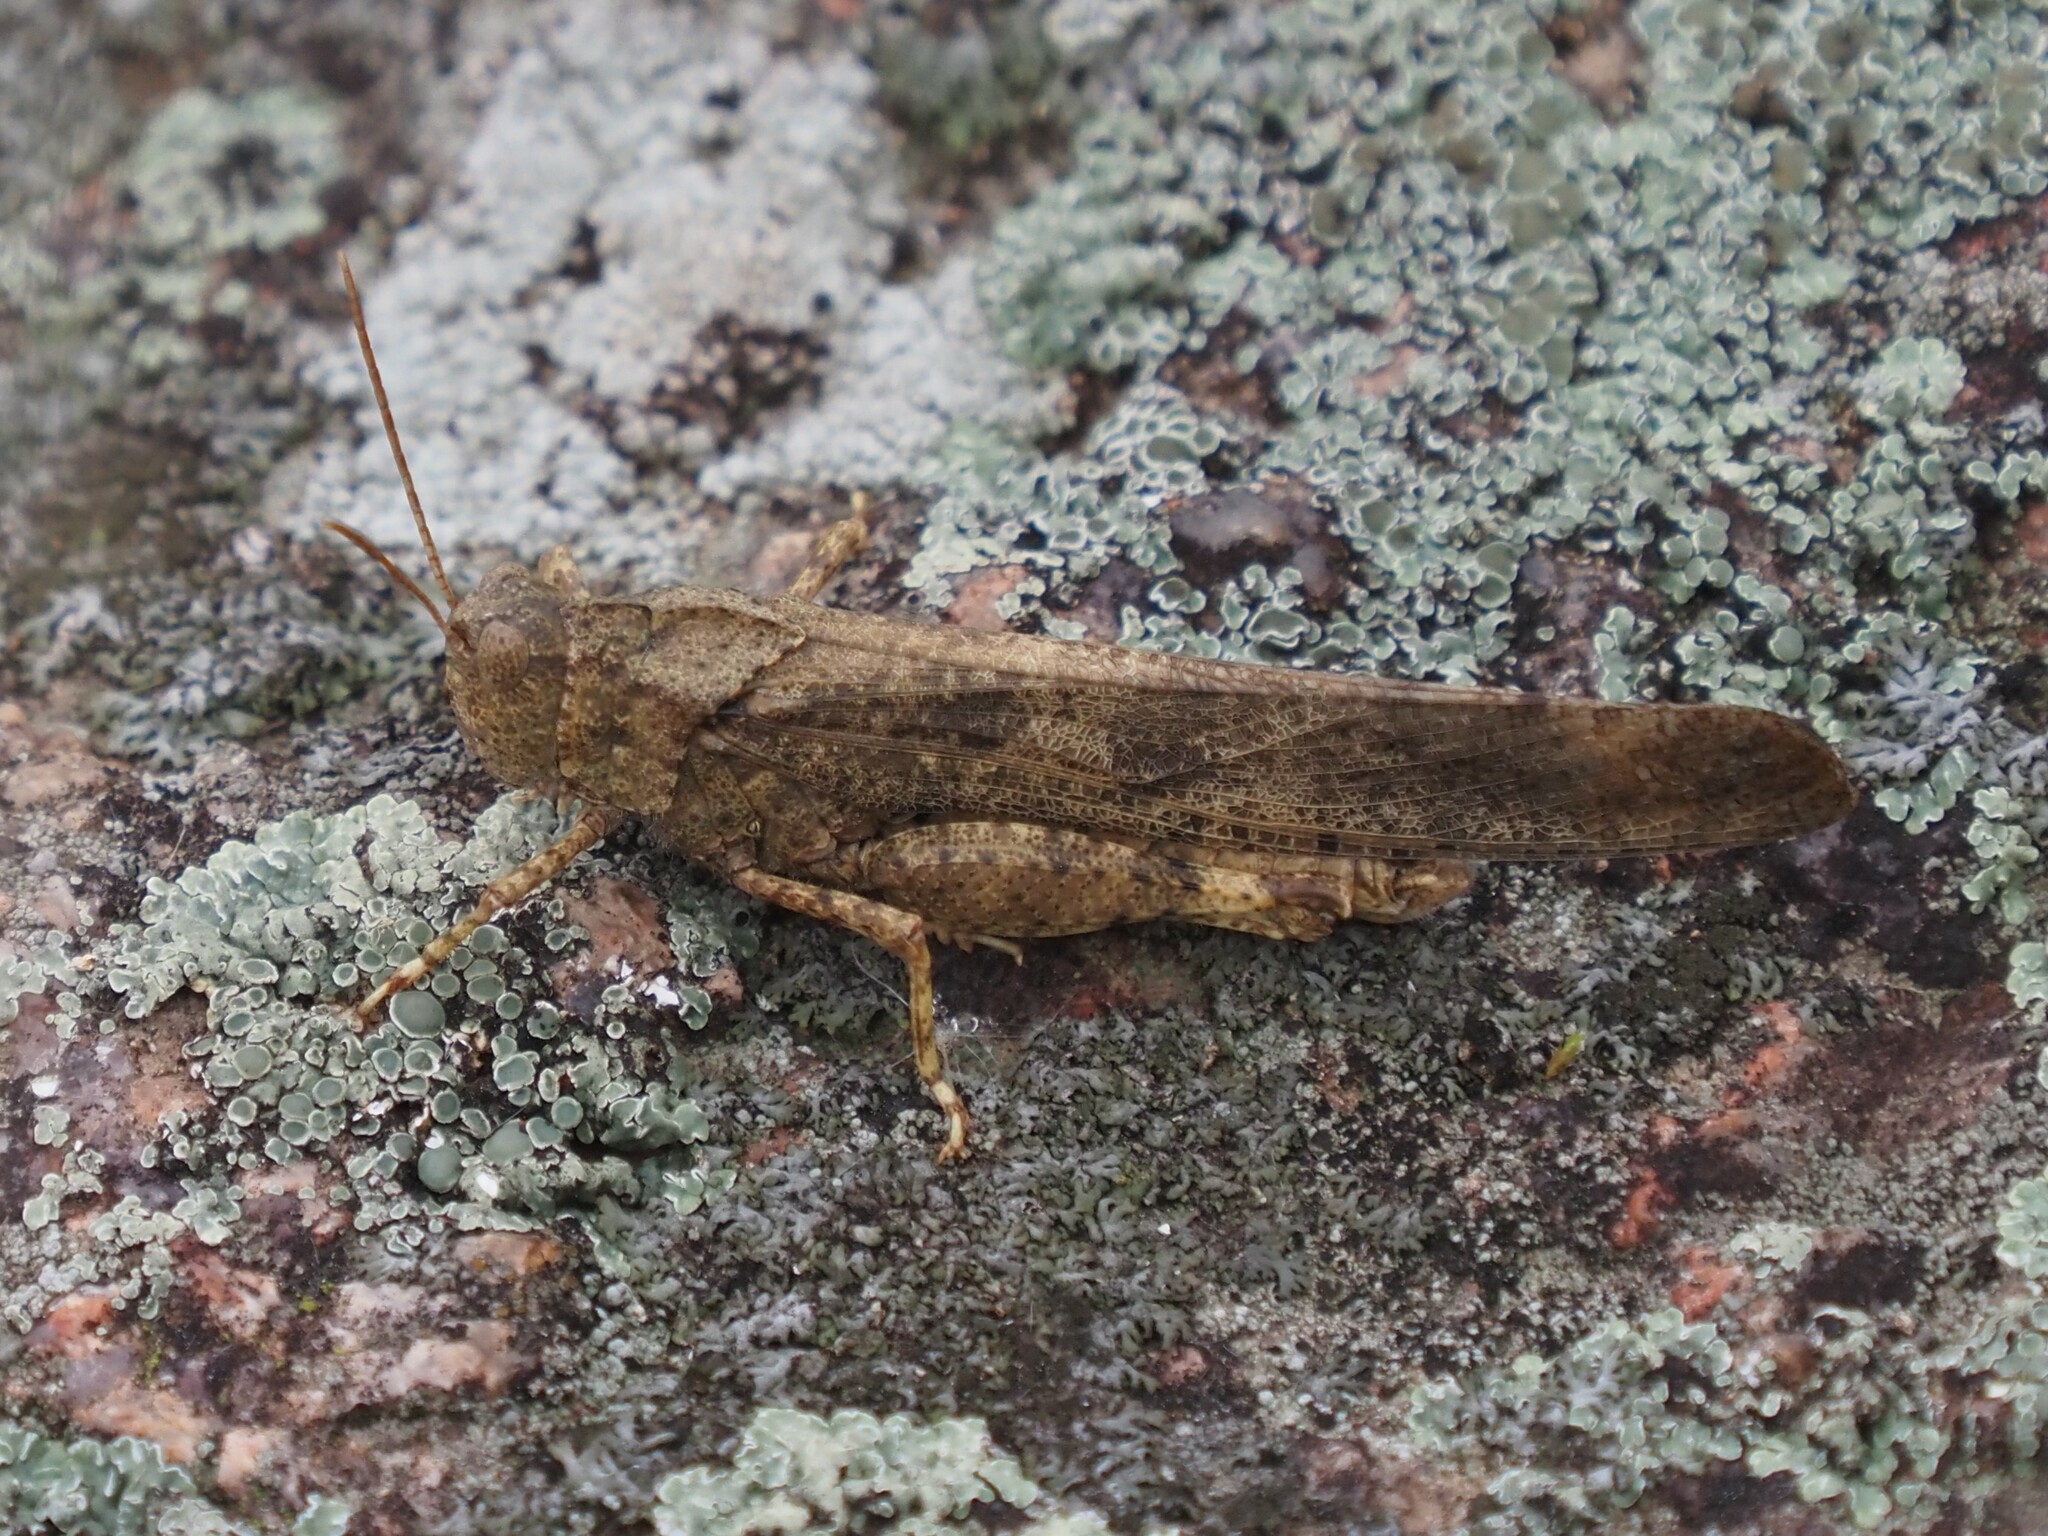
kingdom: Animalia
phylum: Arthropoda
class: Insecta
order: Orthoptera
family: Acrididae
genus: Dissosteira
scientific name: Dissosteira carolina
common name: Carolina grasshopper
